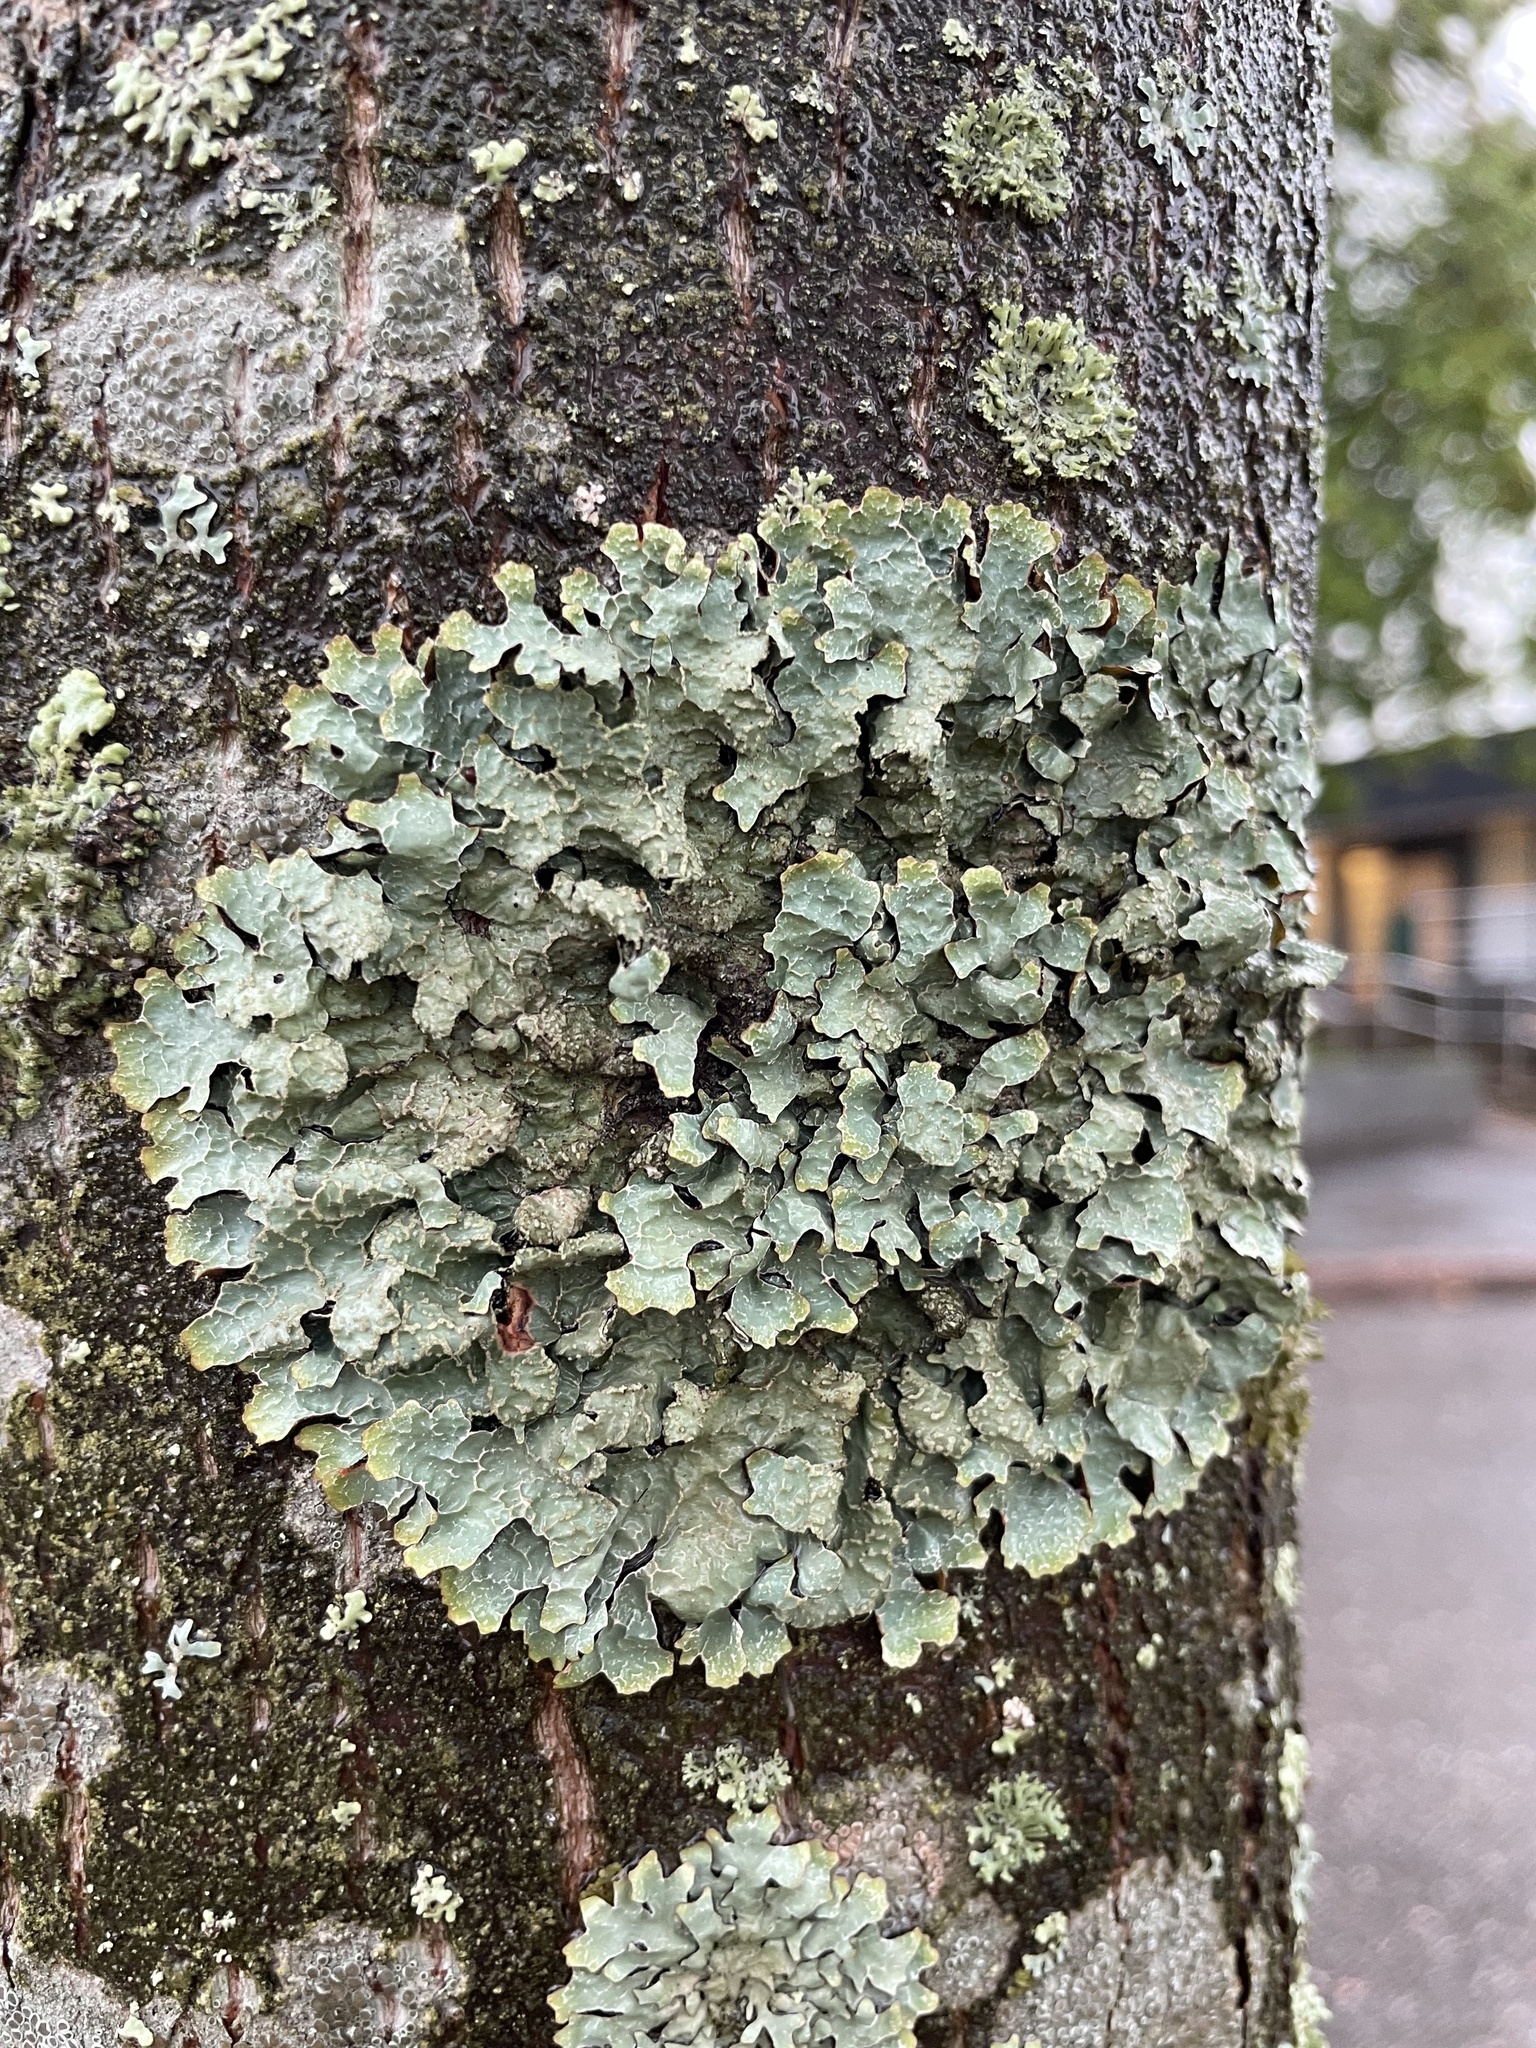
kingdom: Fungi
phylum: Ascomycota
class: Lecanoromycetes
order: Lecanorales
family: Parmeliaceae
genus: Parmelia
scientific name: Parmelia sulcata
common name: Netted shield lichen
